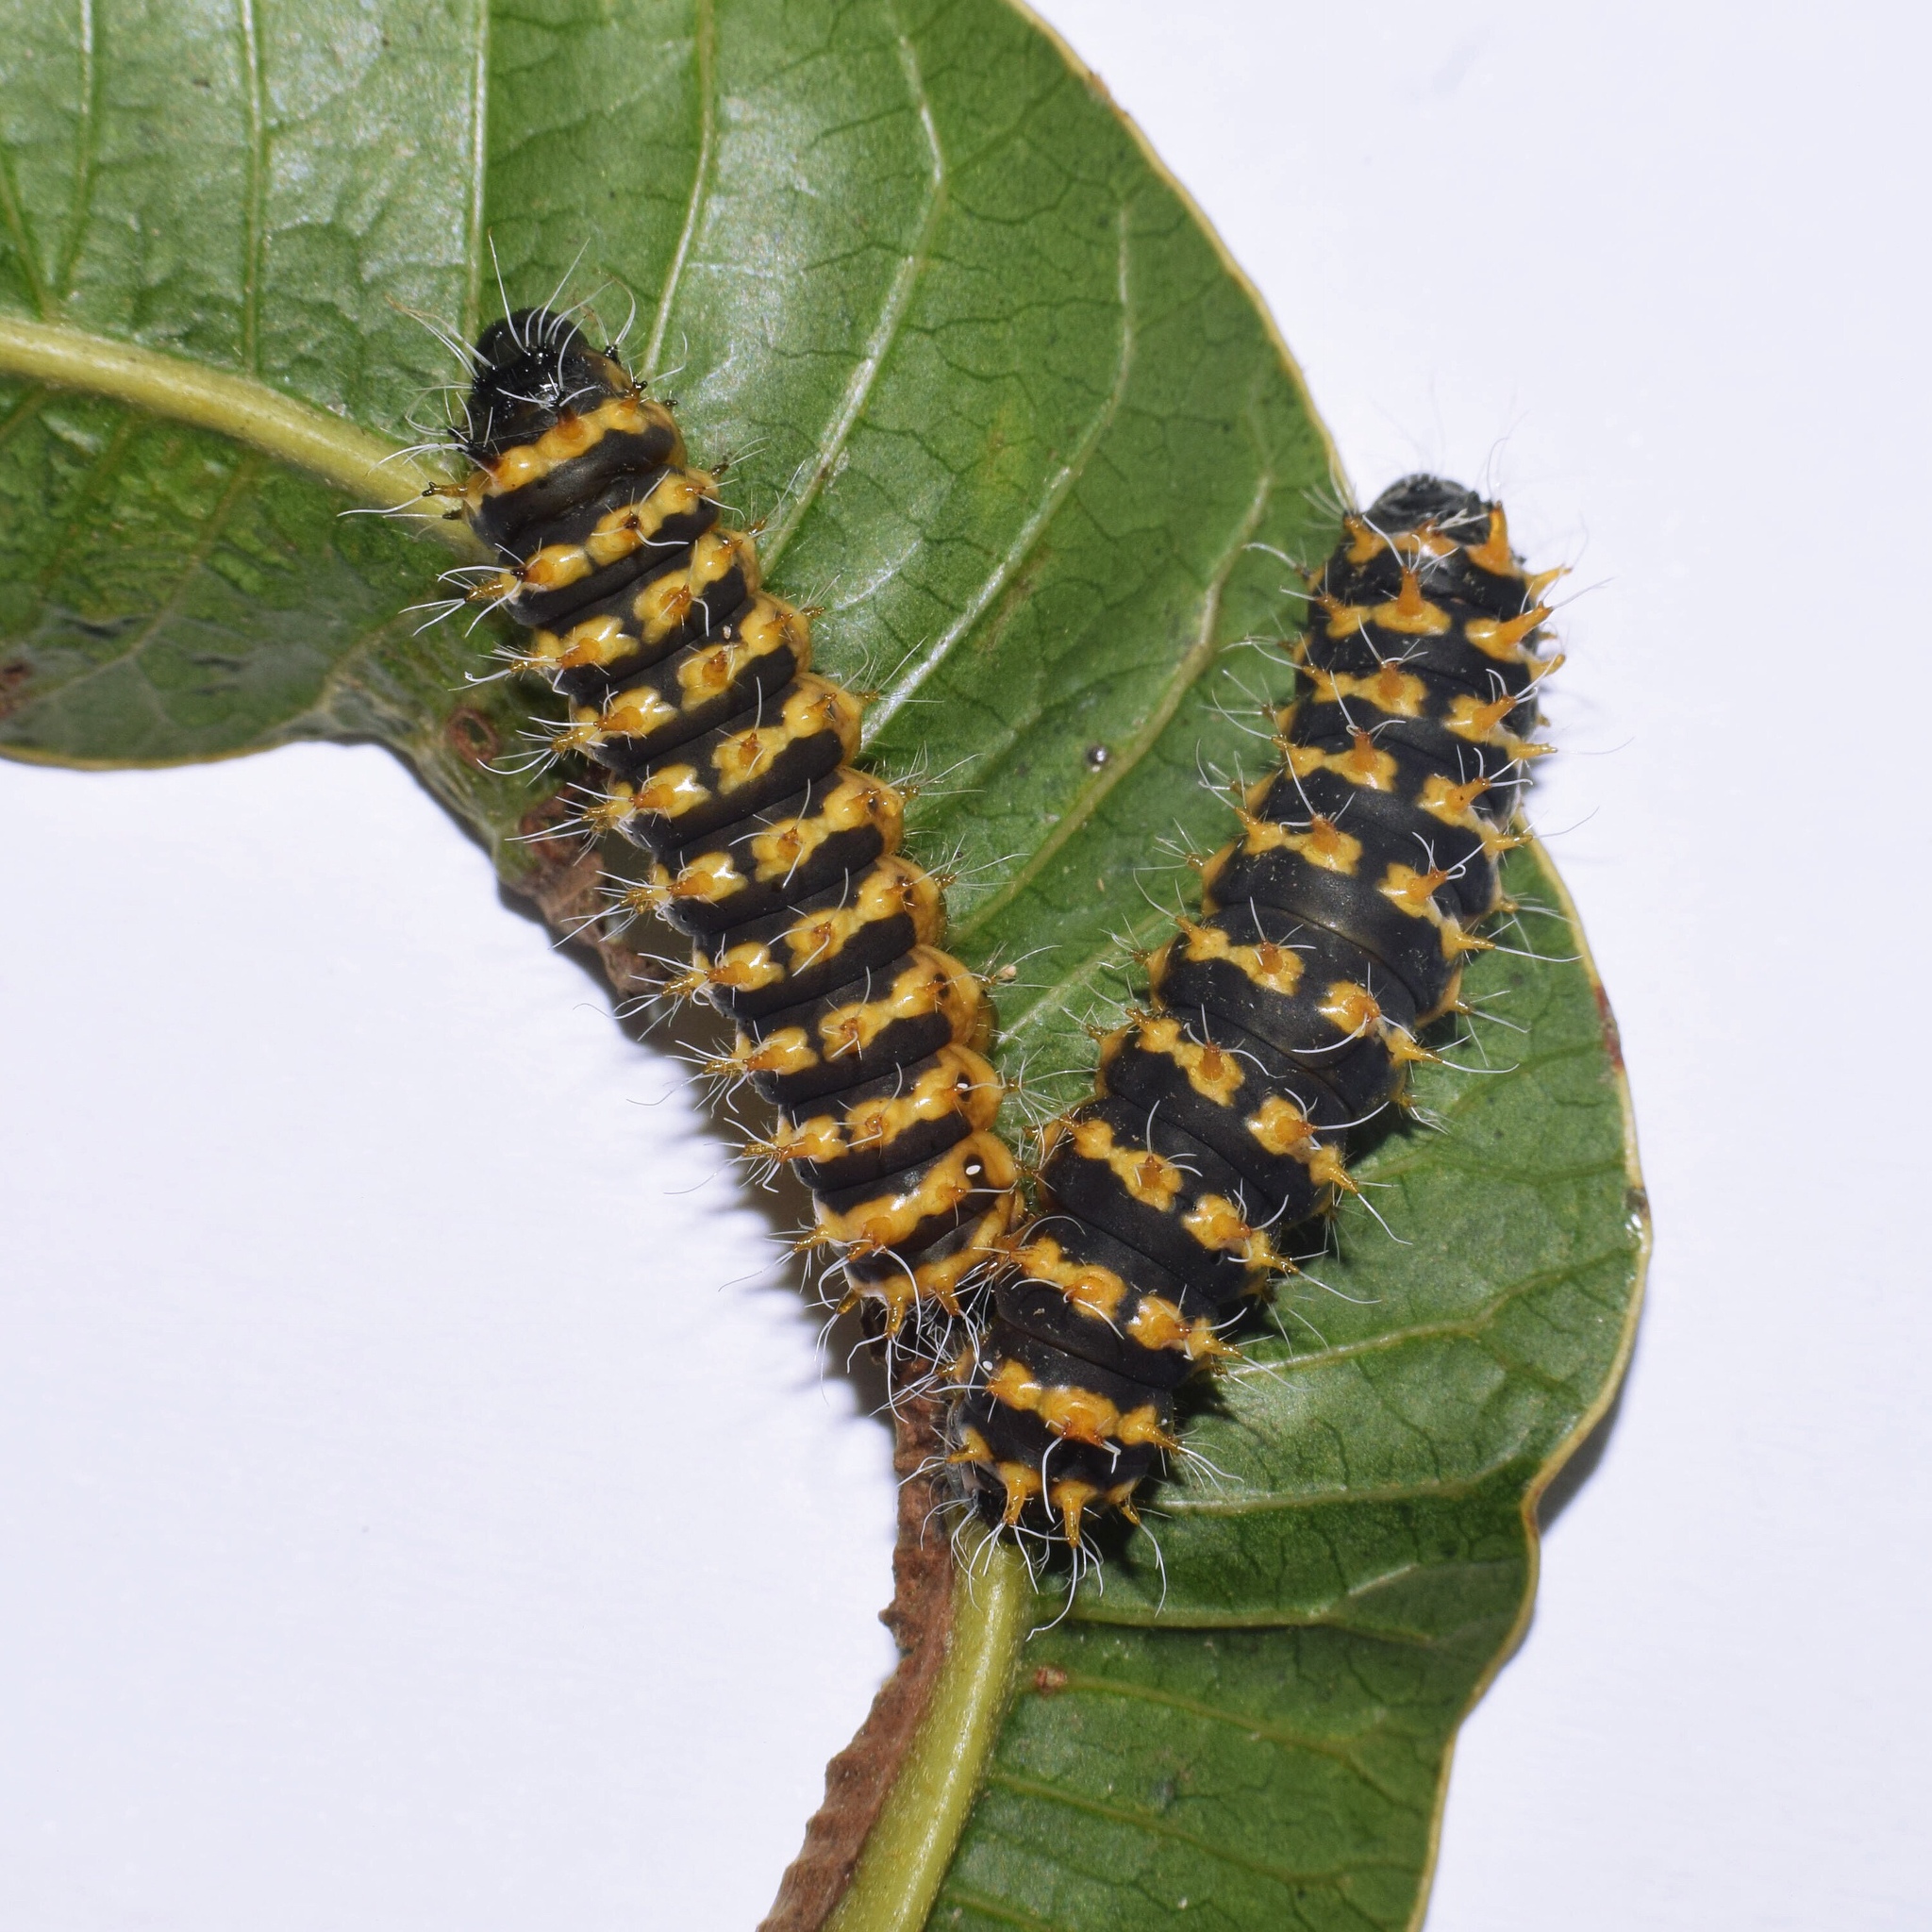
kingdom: Animalia
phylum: Arthropoda
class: Insecta
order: Lepidoptera
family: Saturniidae
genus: Nudaurelia
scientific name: Nudaurelia wahlbergi
